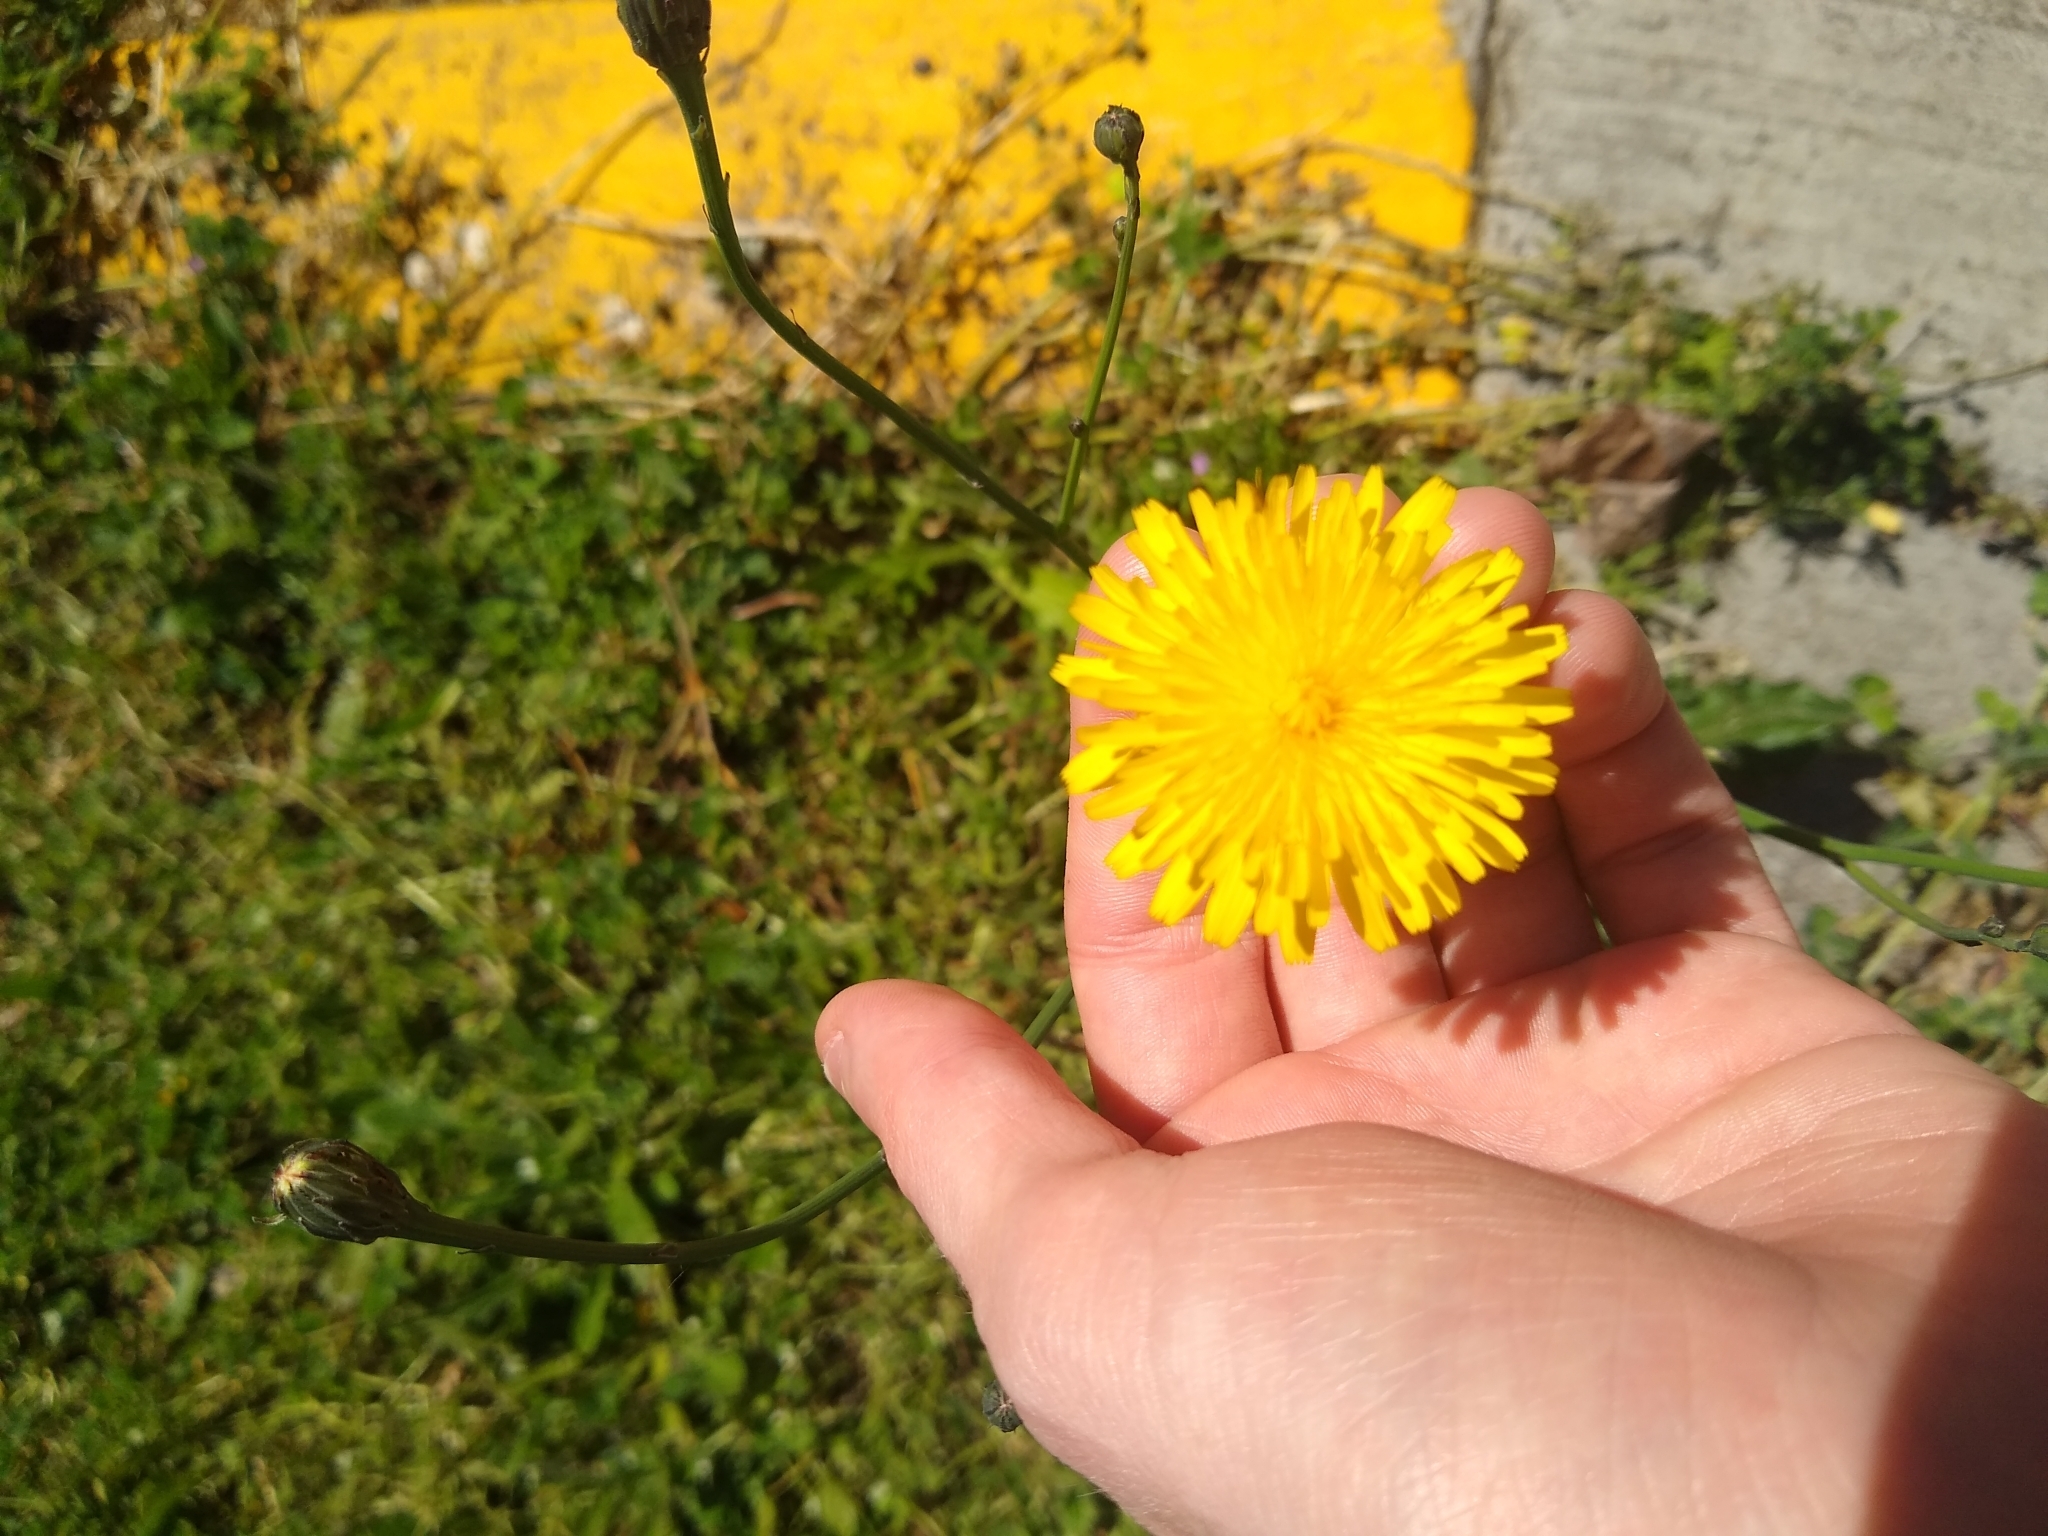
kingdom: Plantae
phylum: Tracheophyta
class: Magnoliopsida
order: Asterales
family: Asteraceae
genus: Hypochaeris
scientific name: Hypochaeris radicata
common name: Flatweed
